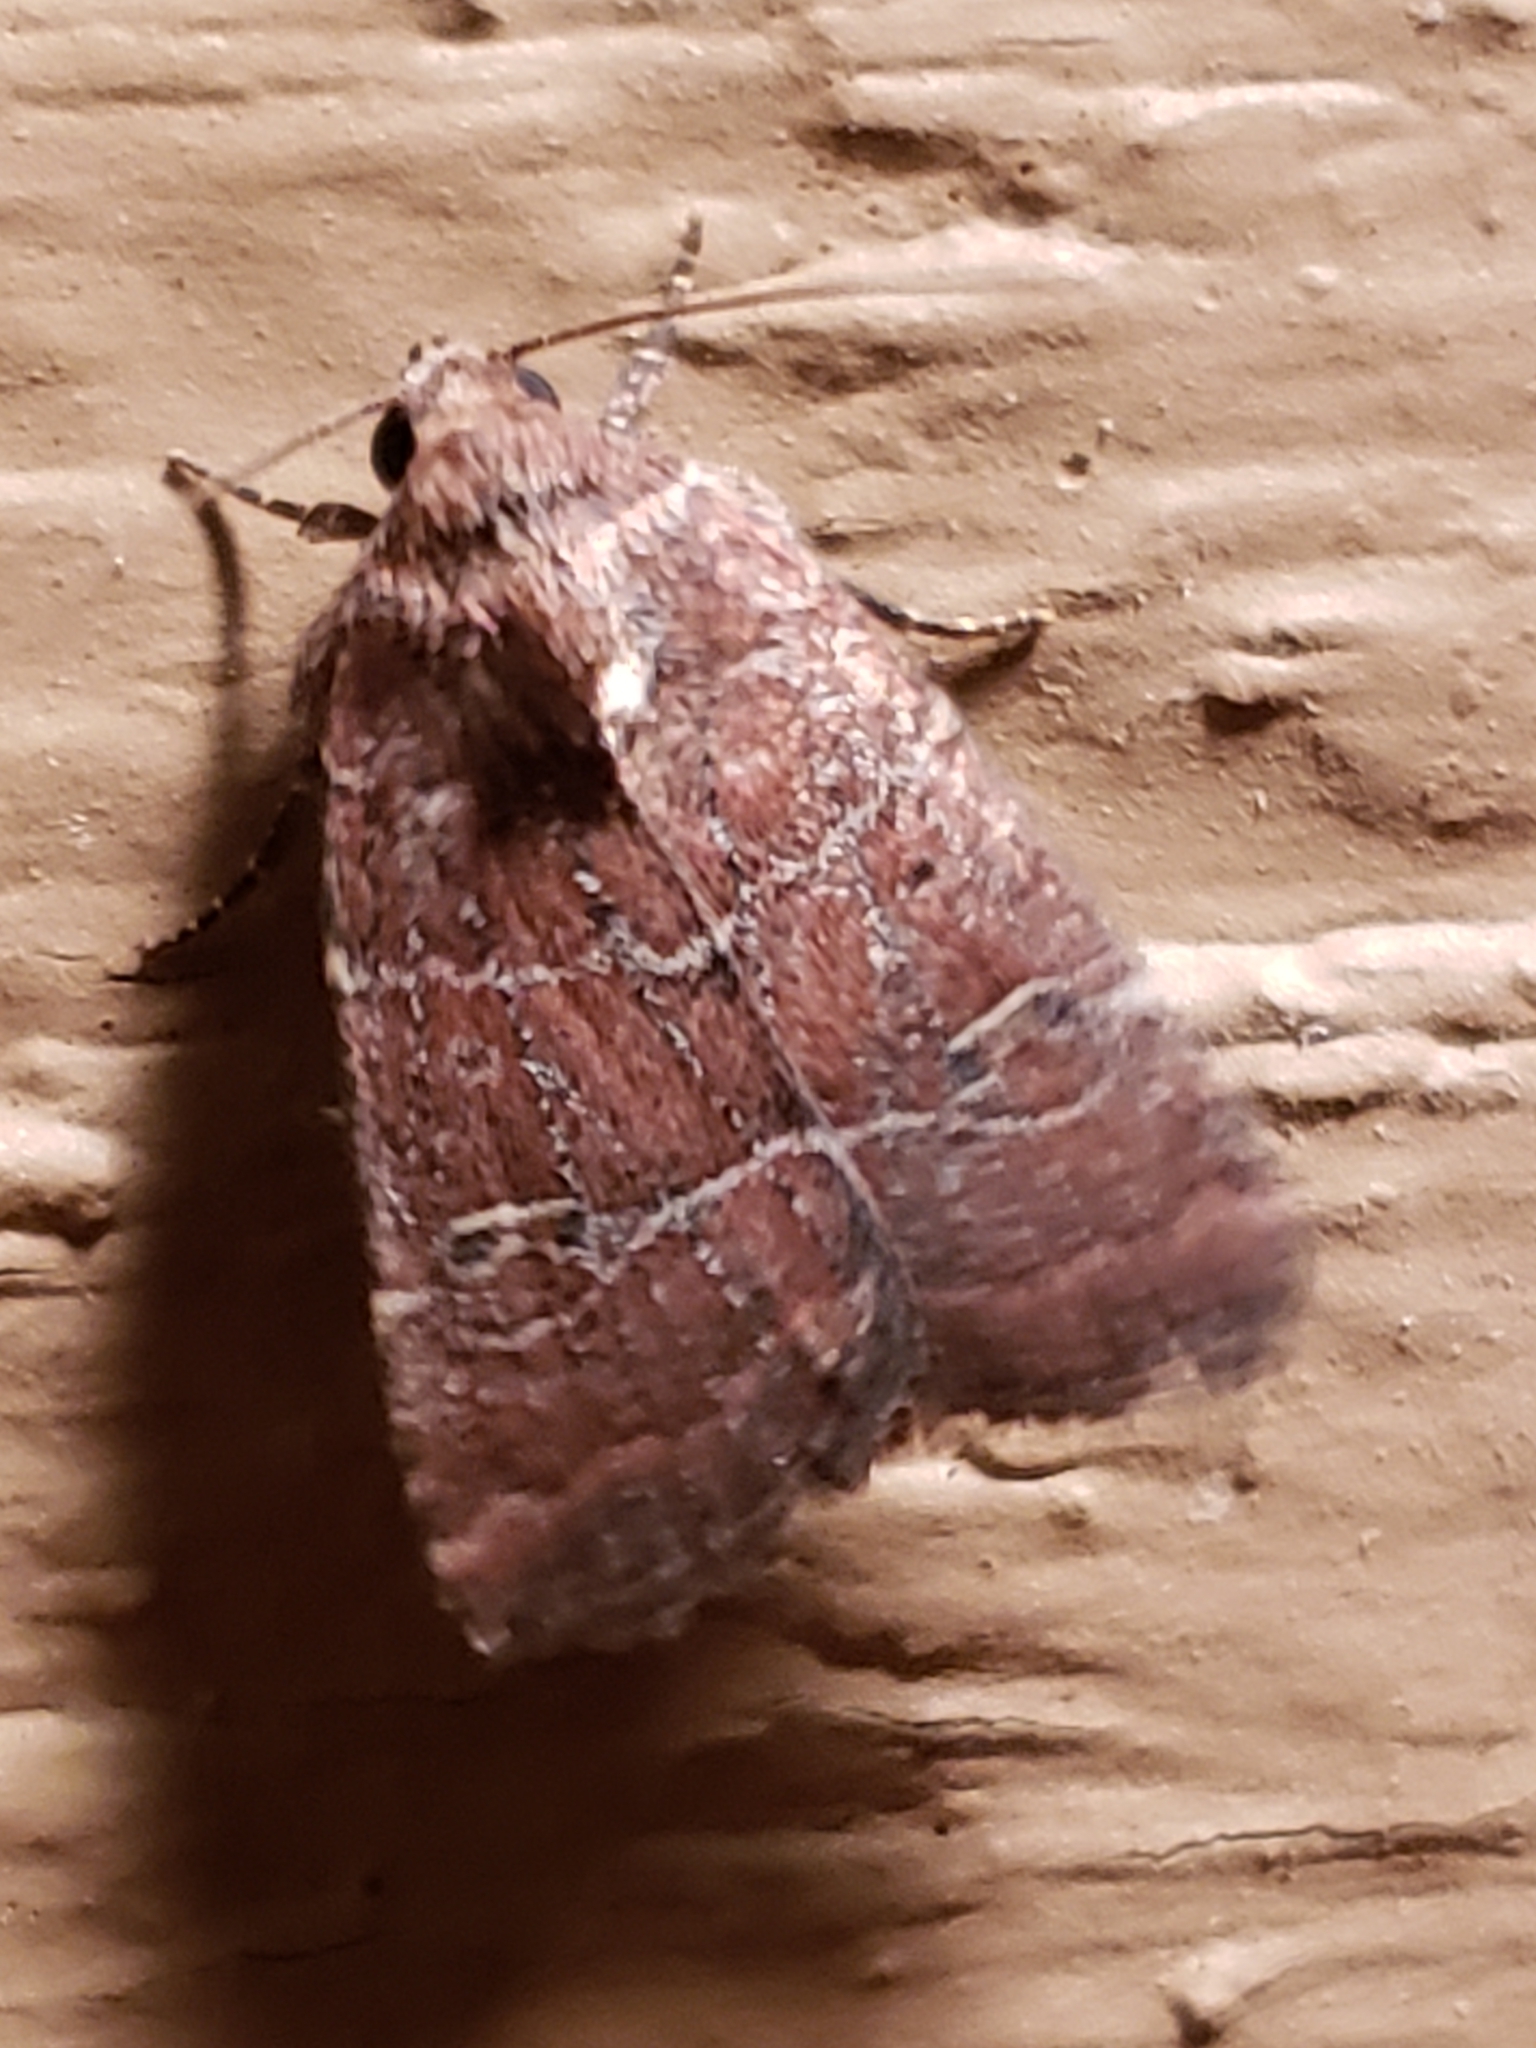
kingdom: Animalia
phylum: Arthropoda
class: Insecta
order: Lepidoptera
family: Noctuidae
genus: Elaphria
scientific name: Elaphria grata
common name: Grateful midget moth
